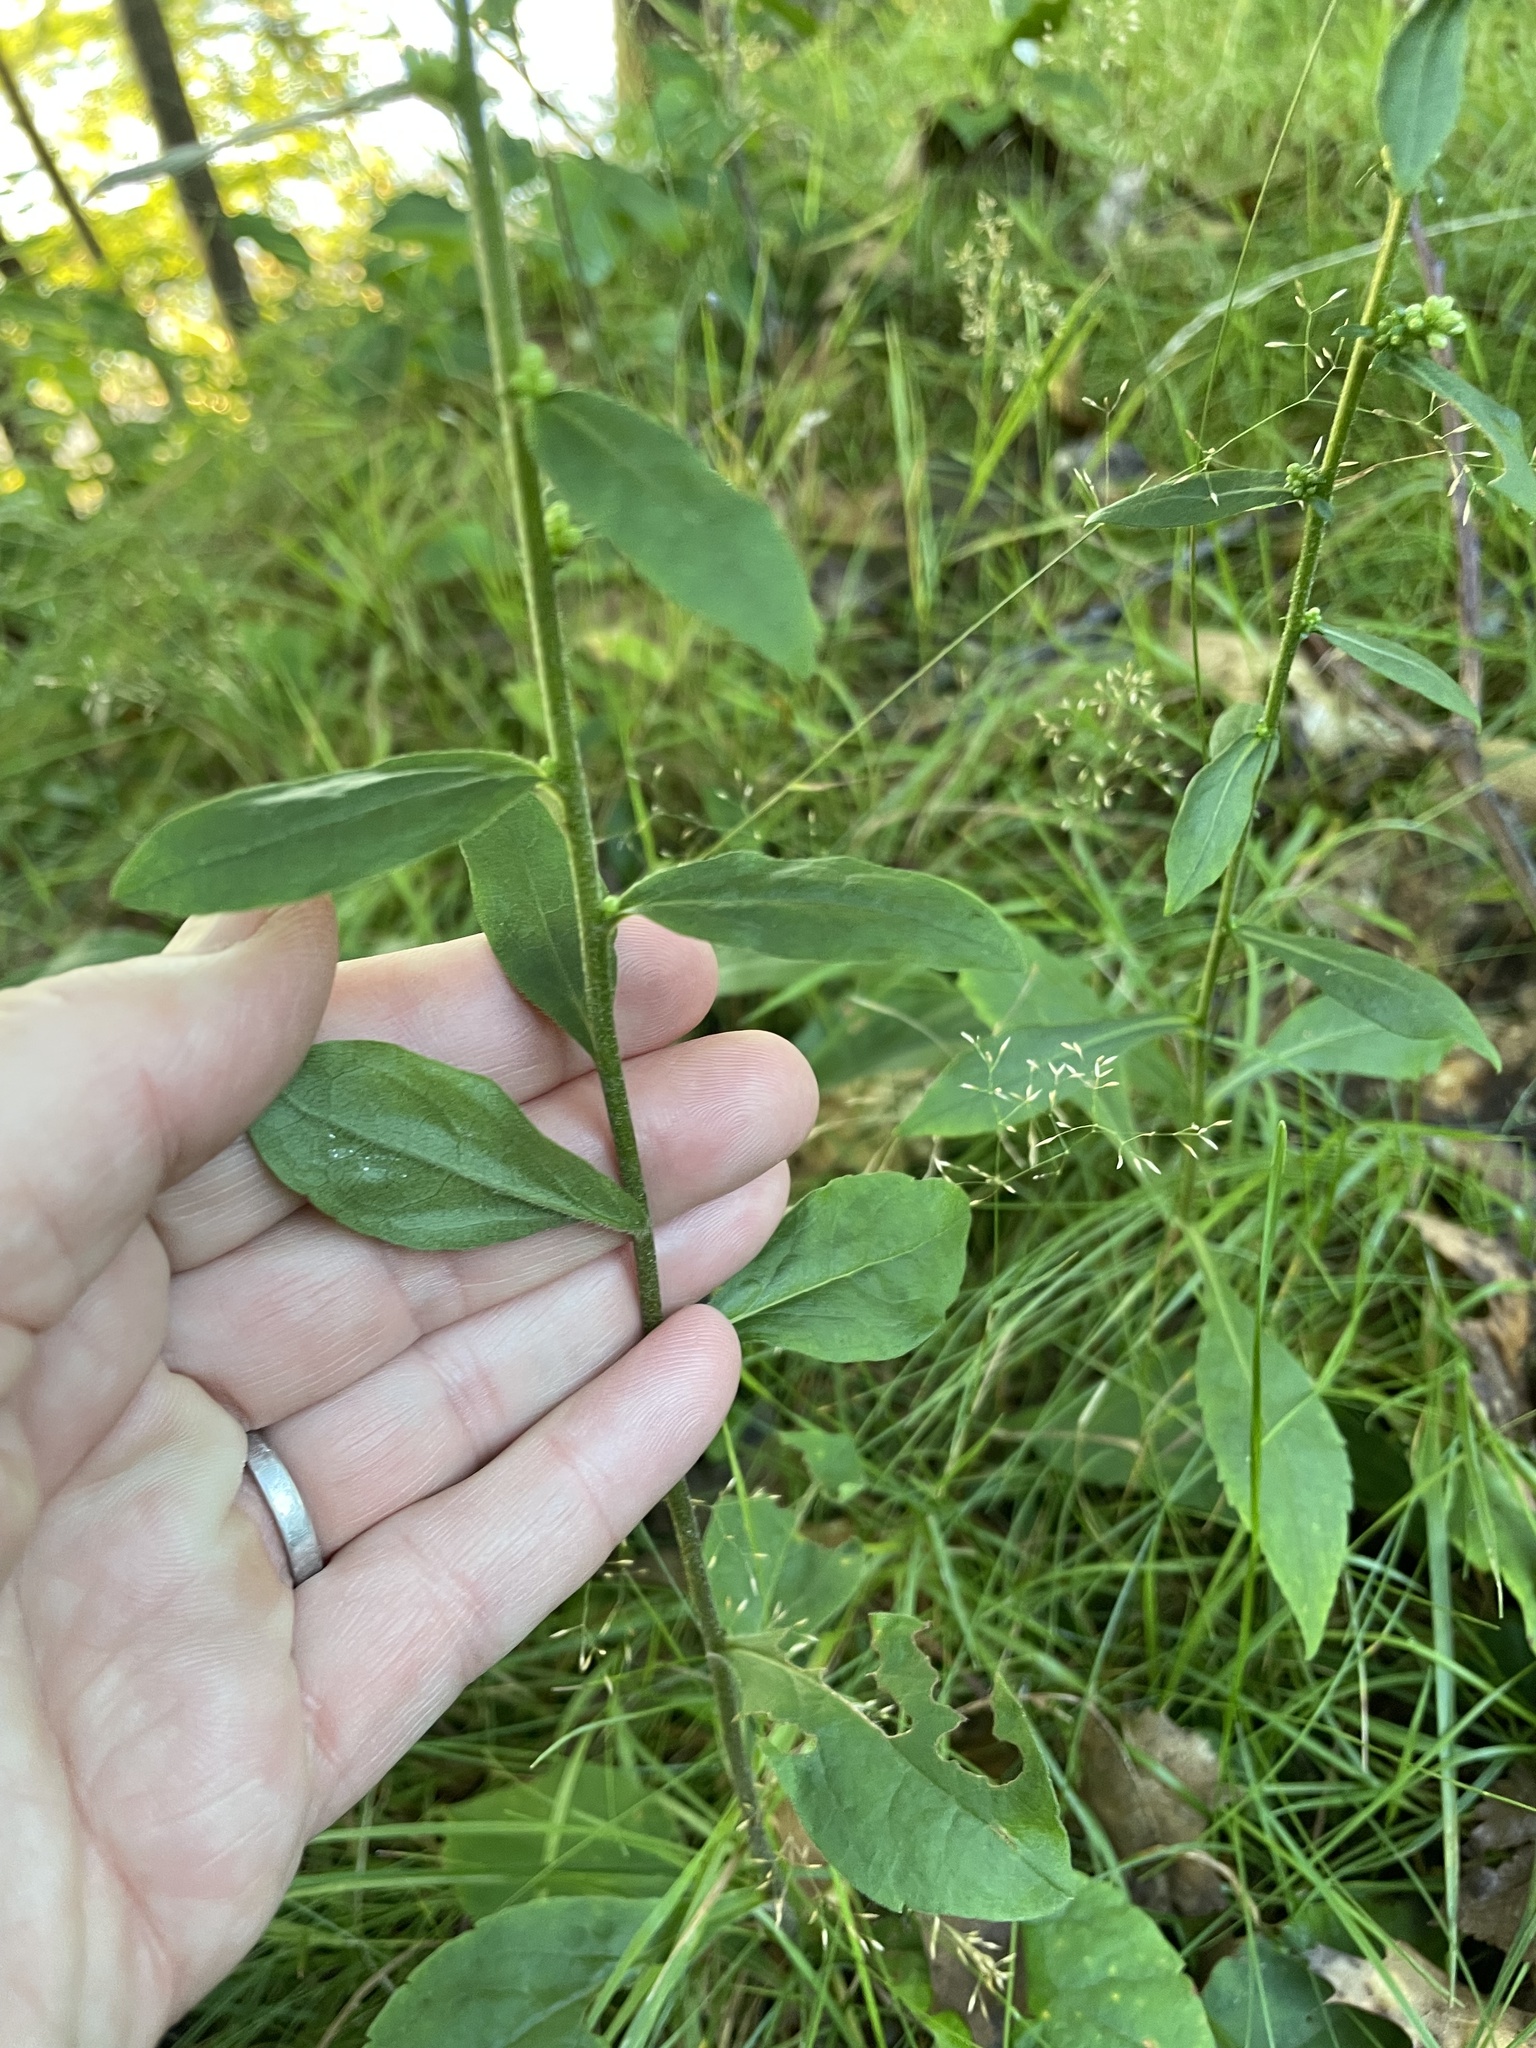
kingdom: Plantae
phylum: Tracheophyta
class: Magnoliopsida
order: Asterales
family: Asteraceae
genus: Solidago
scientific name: Solidago bicolor
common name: Silverrod
